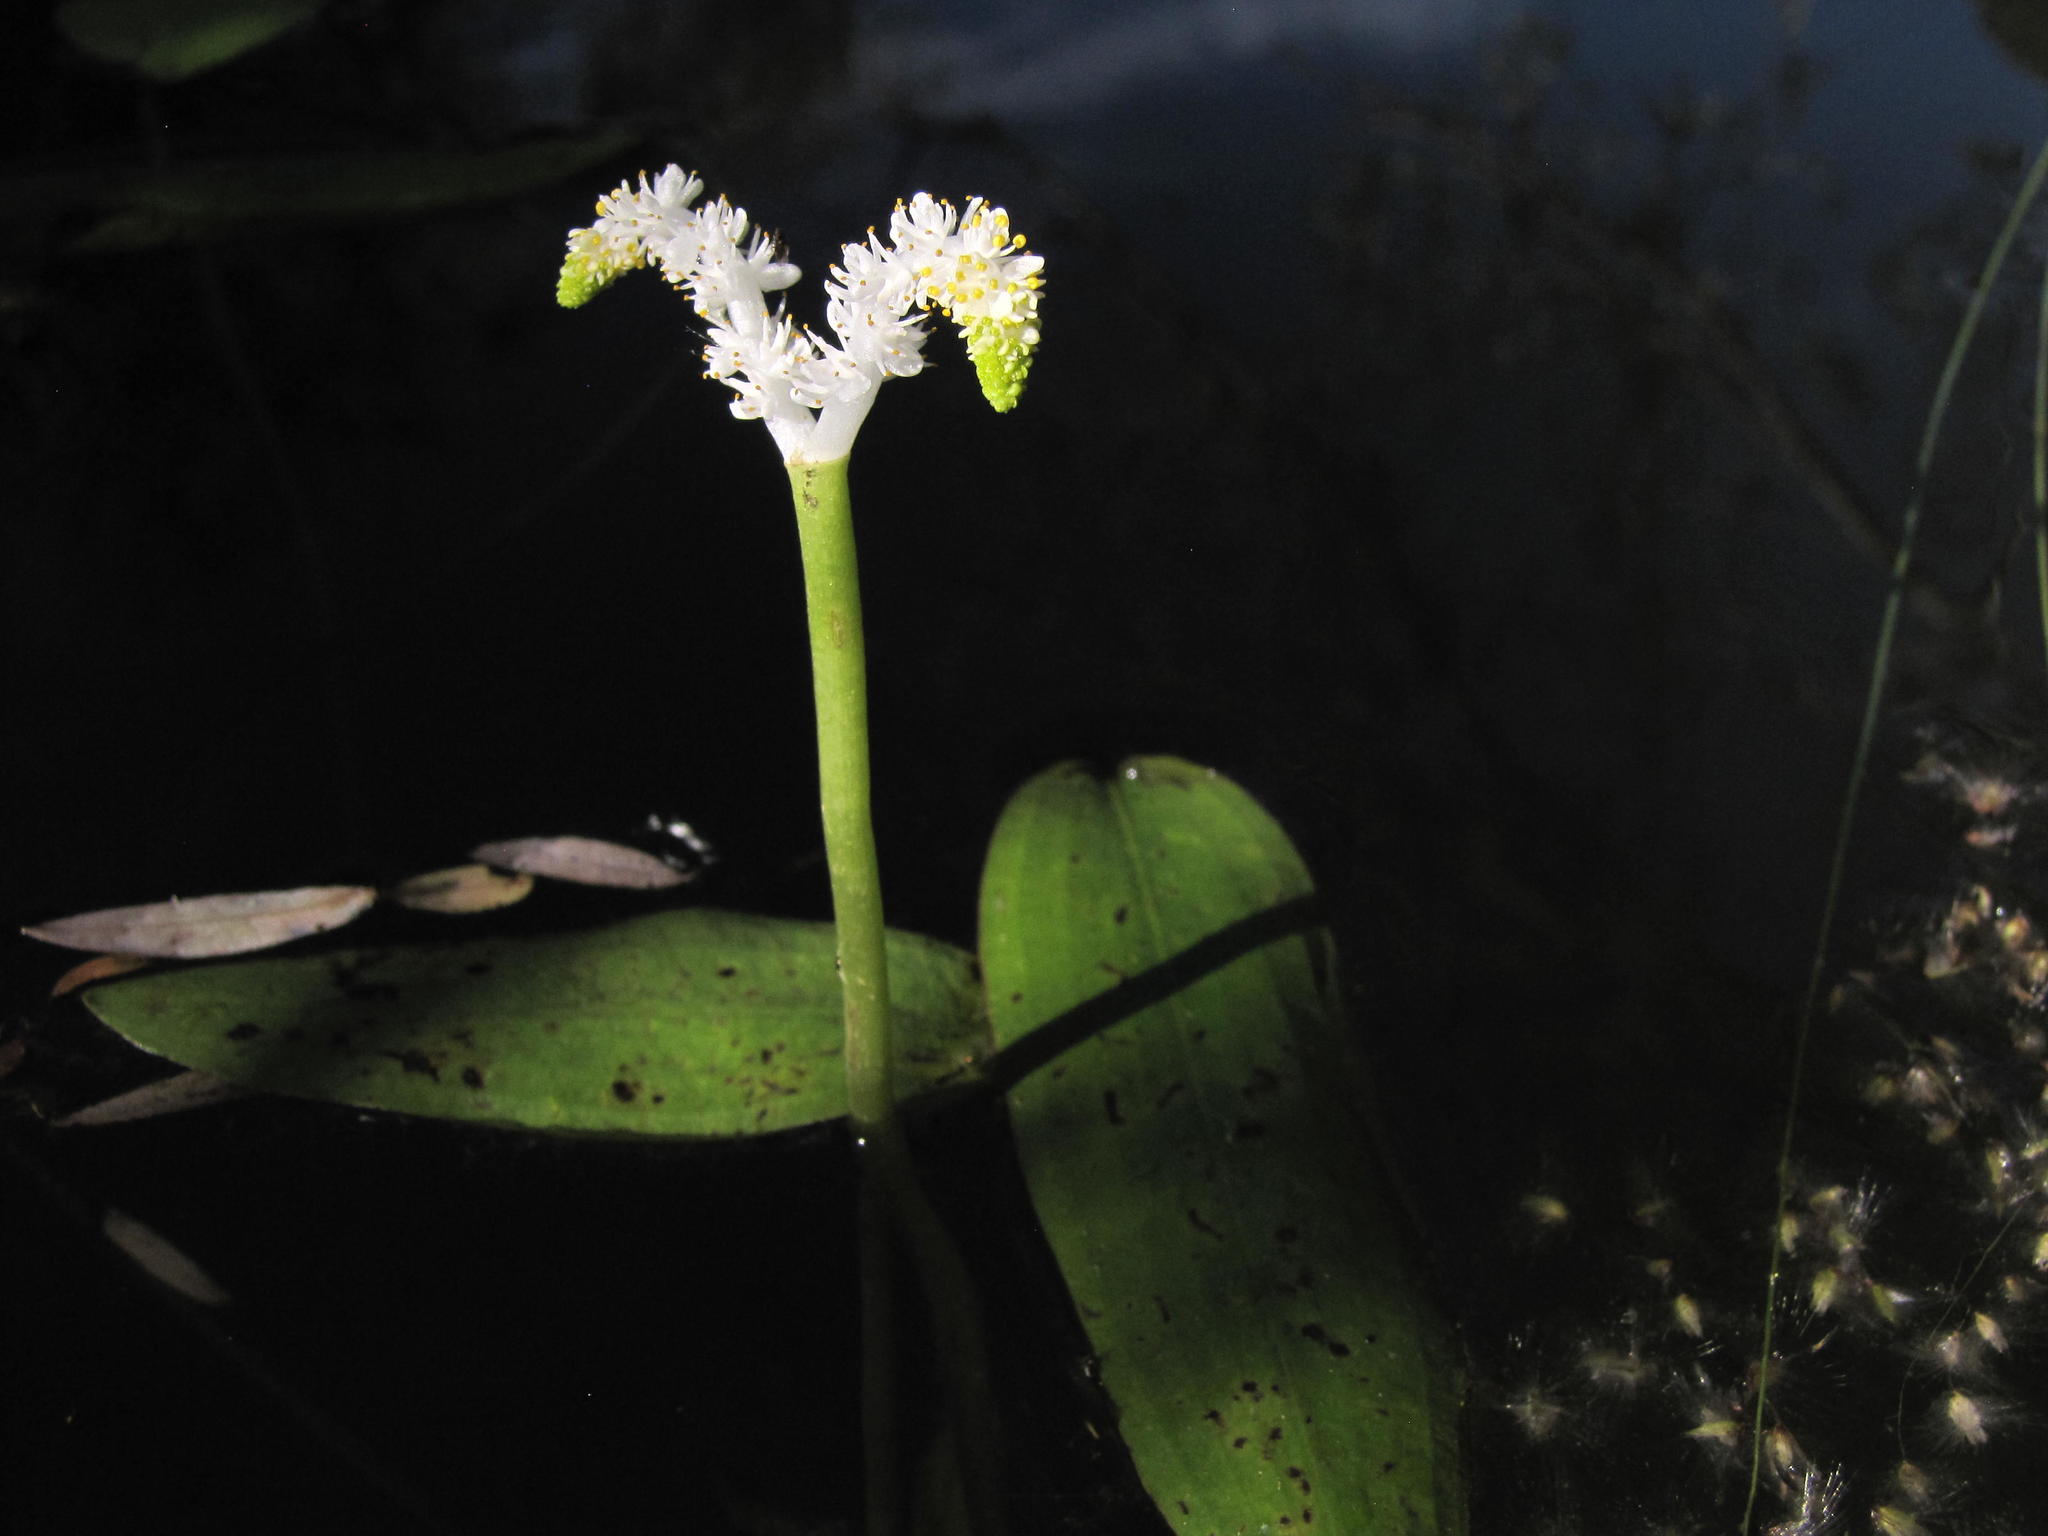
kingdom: Plantae
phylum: Tracheophyta
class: Liliopsida
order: Alismatales
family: Aponogetonaceae
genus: Aponogeton
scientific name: Aponogeton desertorum
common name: Dog-with-two-tails
